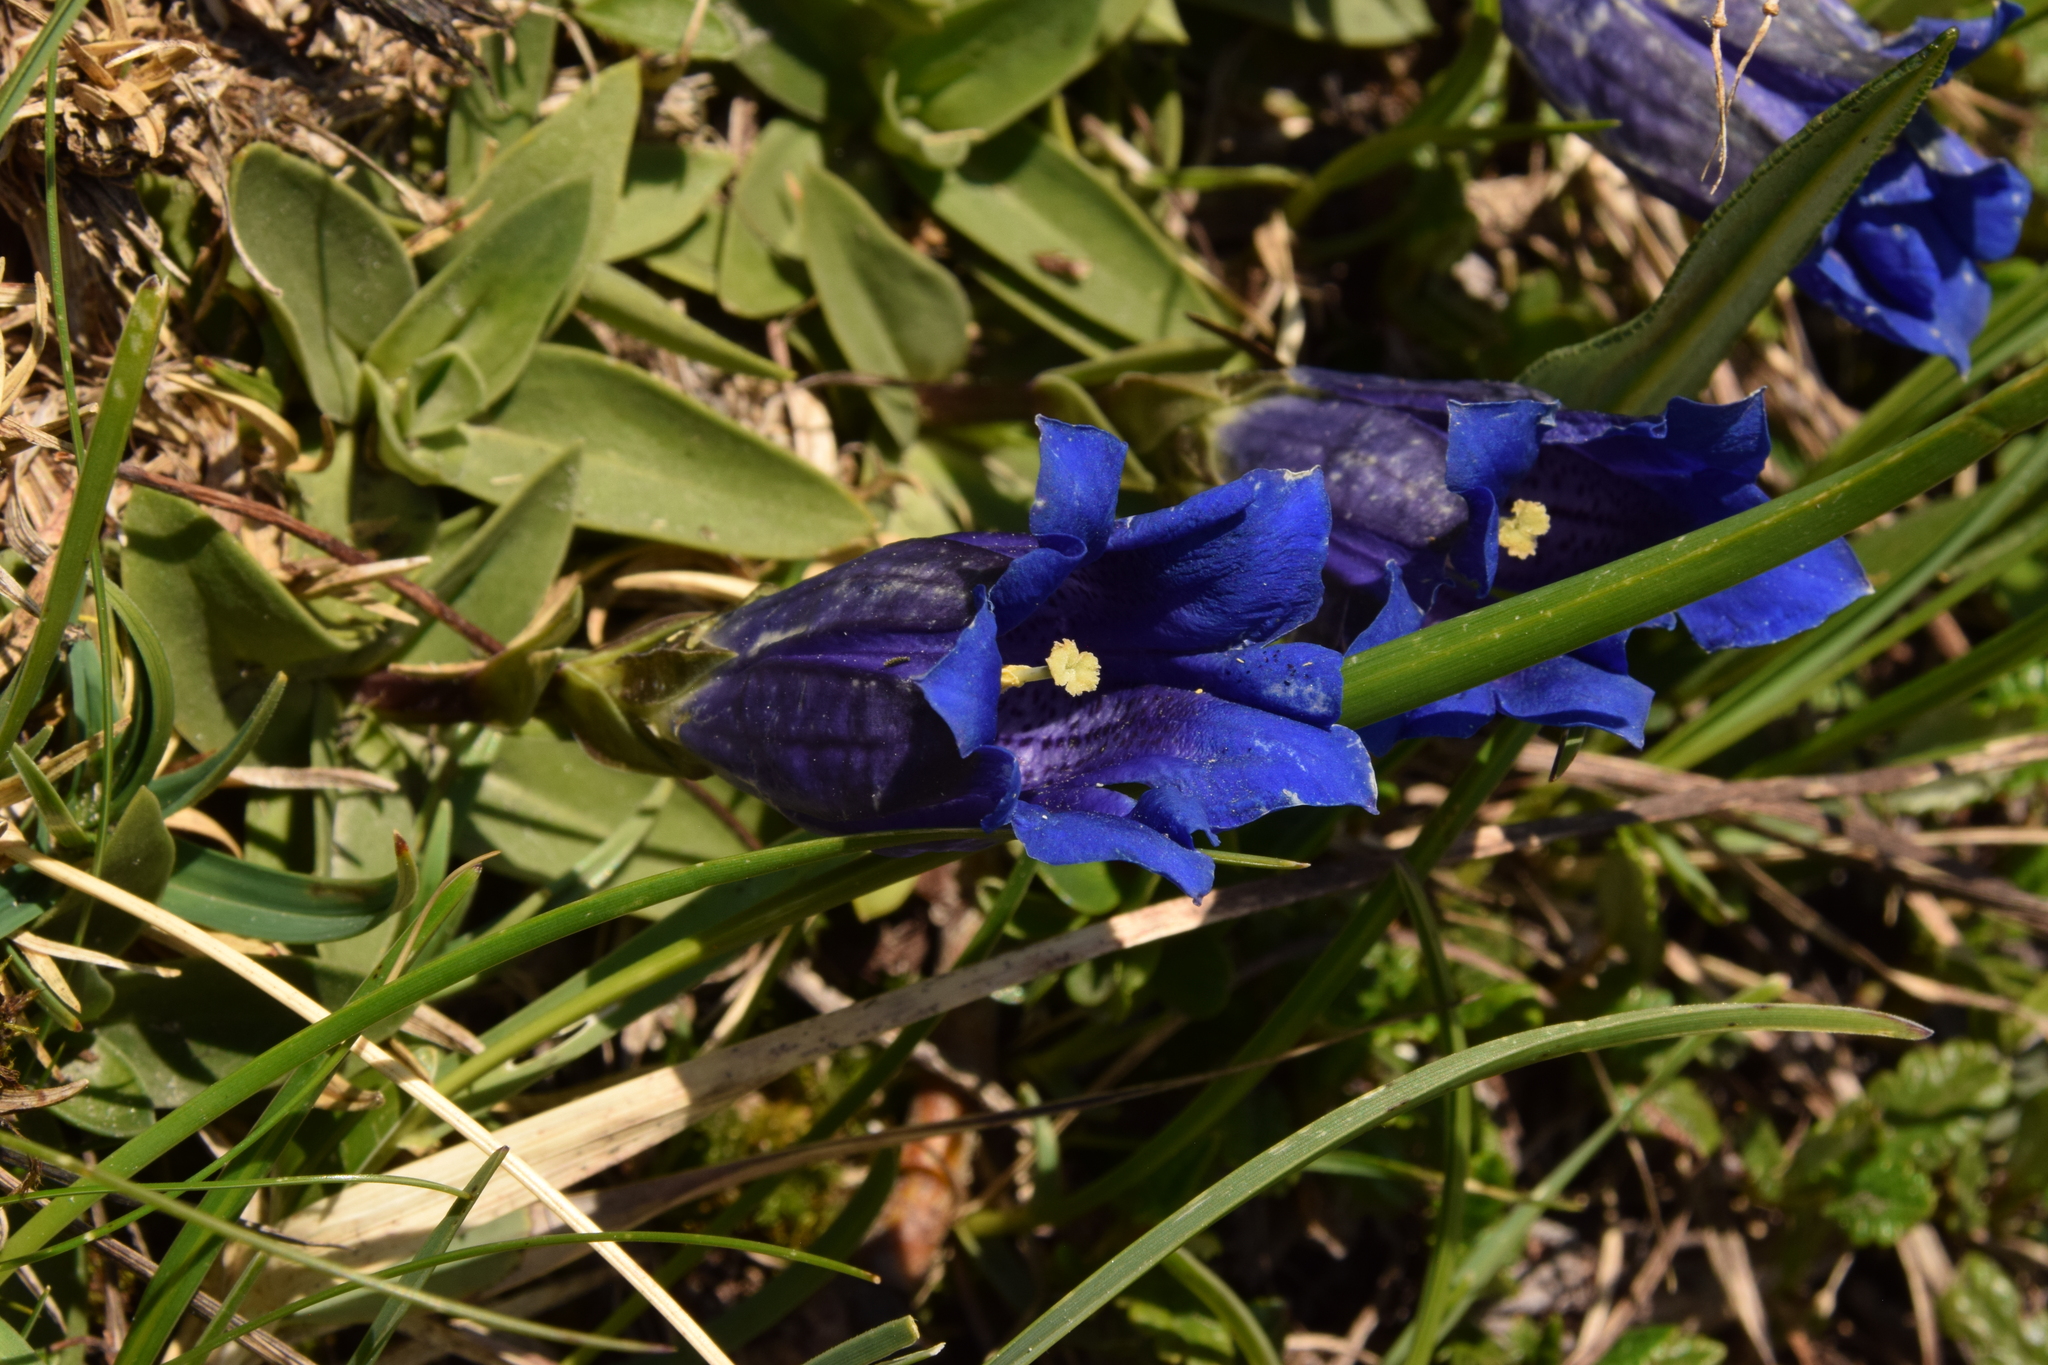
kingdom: Plantae
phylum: Tracheophyta
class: Magnoliopsida
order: Gentianales
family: Gentianaceae
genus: Gentiana
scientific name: Gentiana clusii
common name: Trumpet gentian
